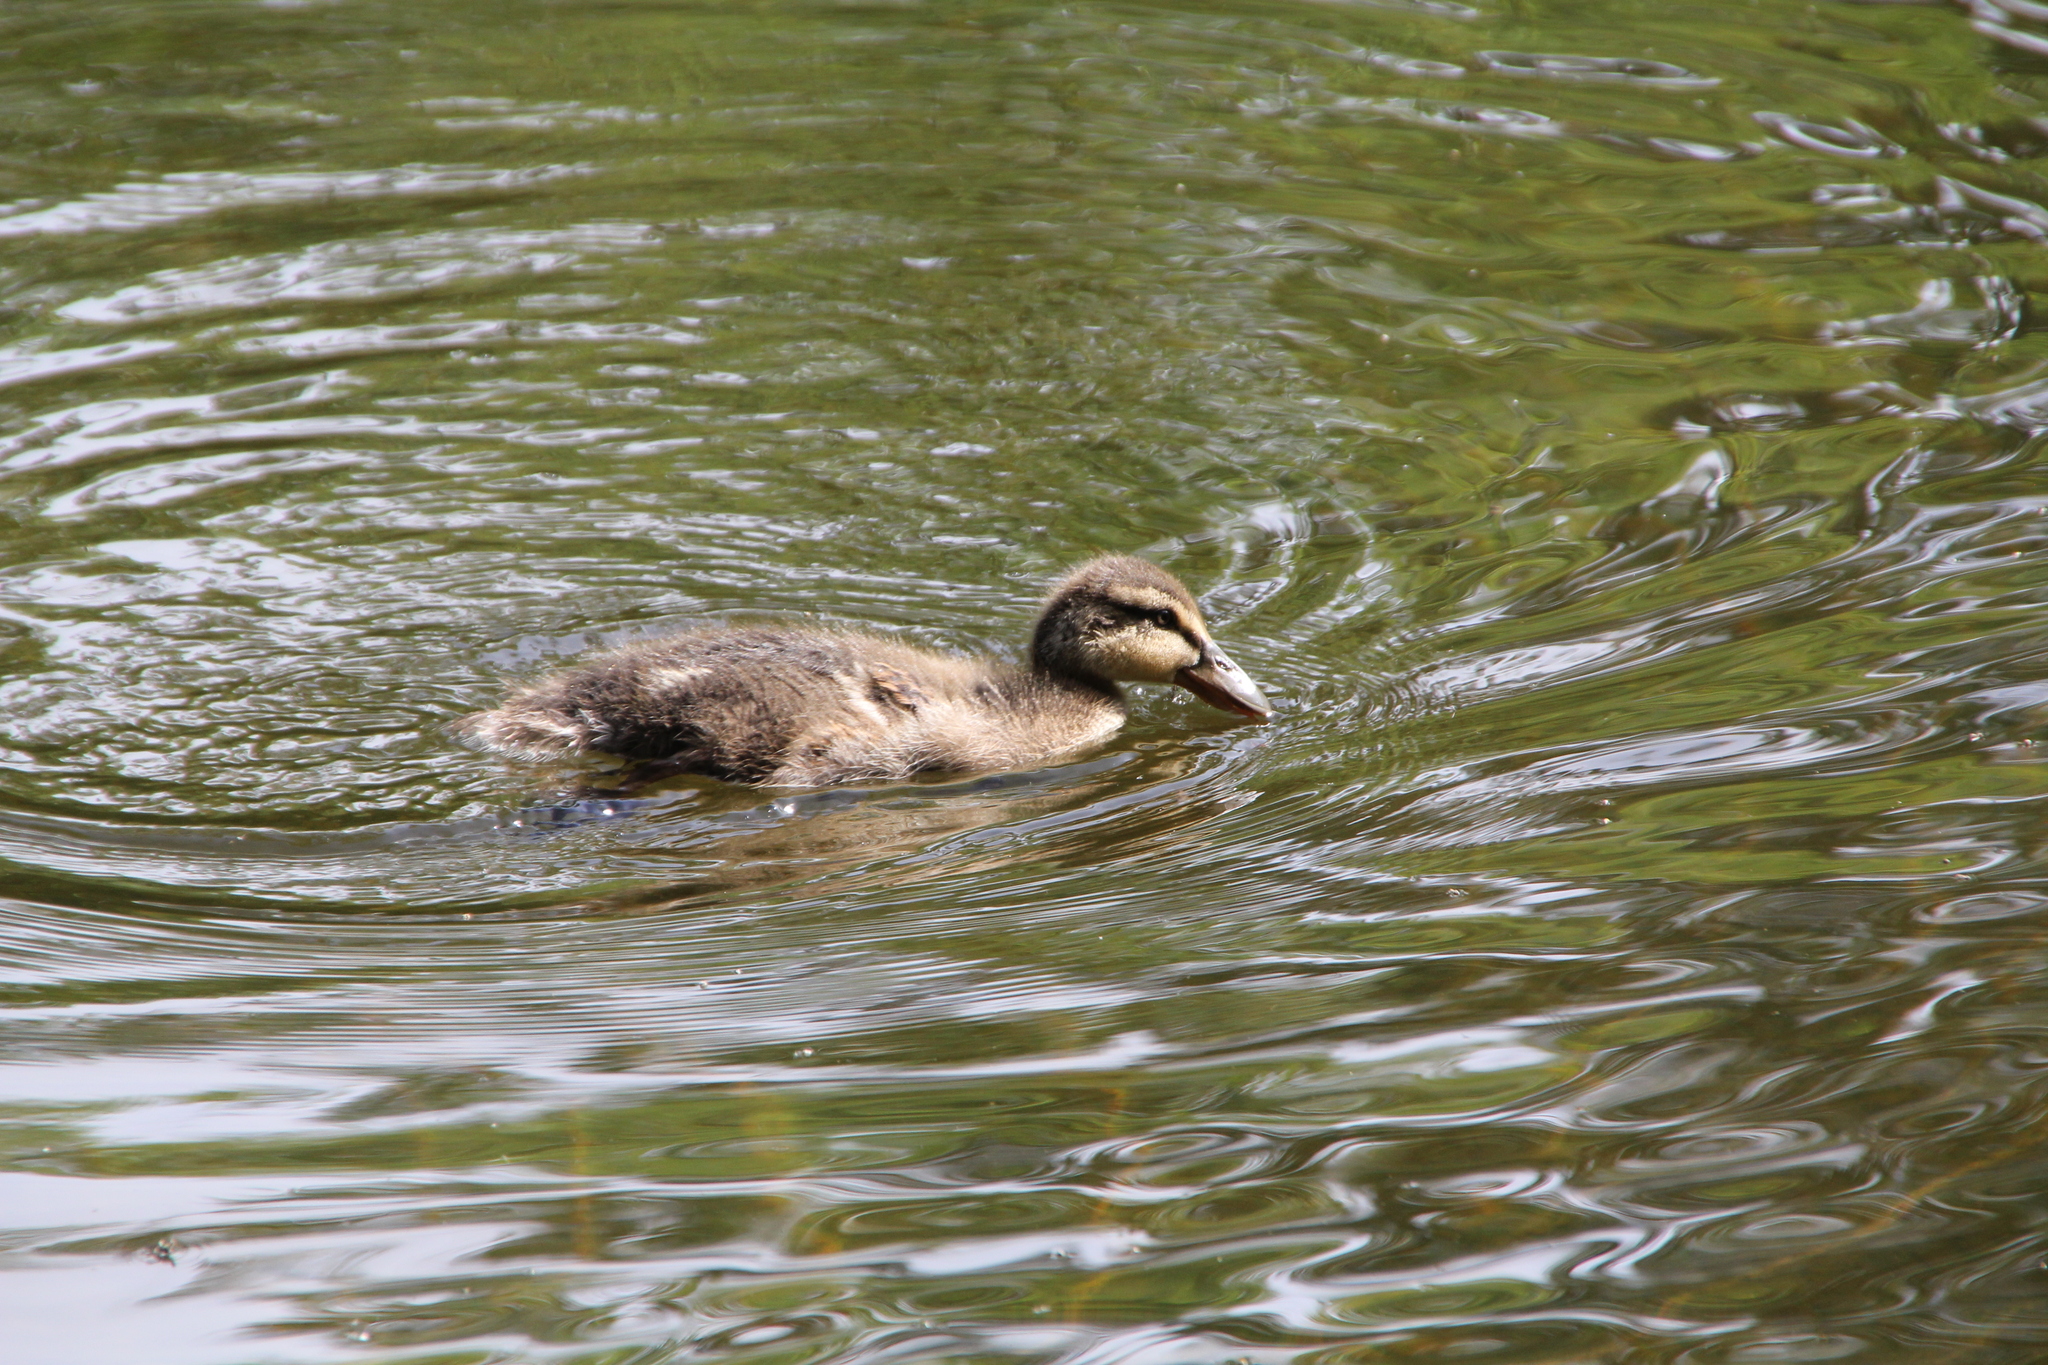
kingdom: Animalia
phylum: Chordata
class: Aves
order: Anseriformes
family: Anatidae
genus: Anas
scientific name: Anas platyrhynchos
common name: Mallard
